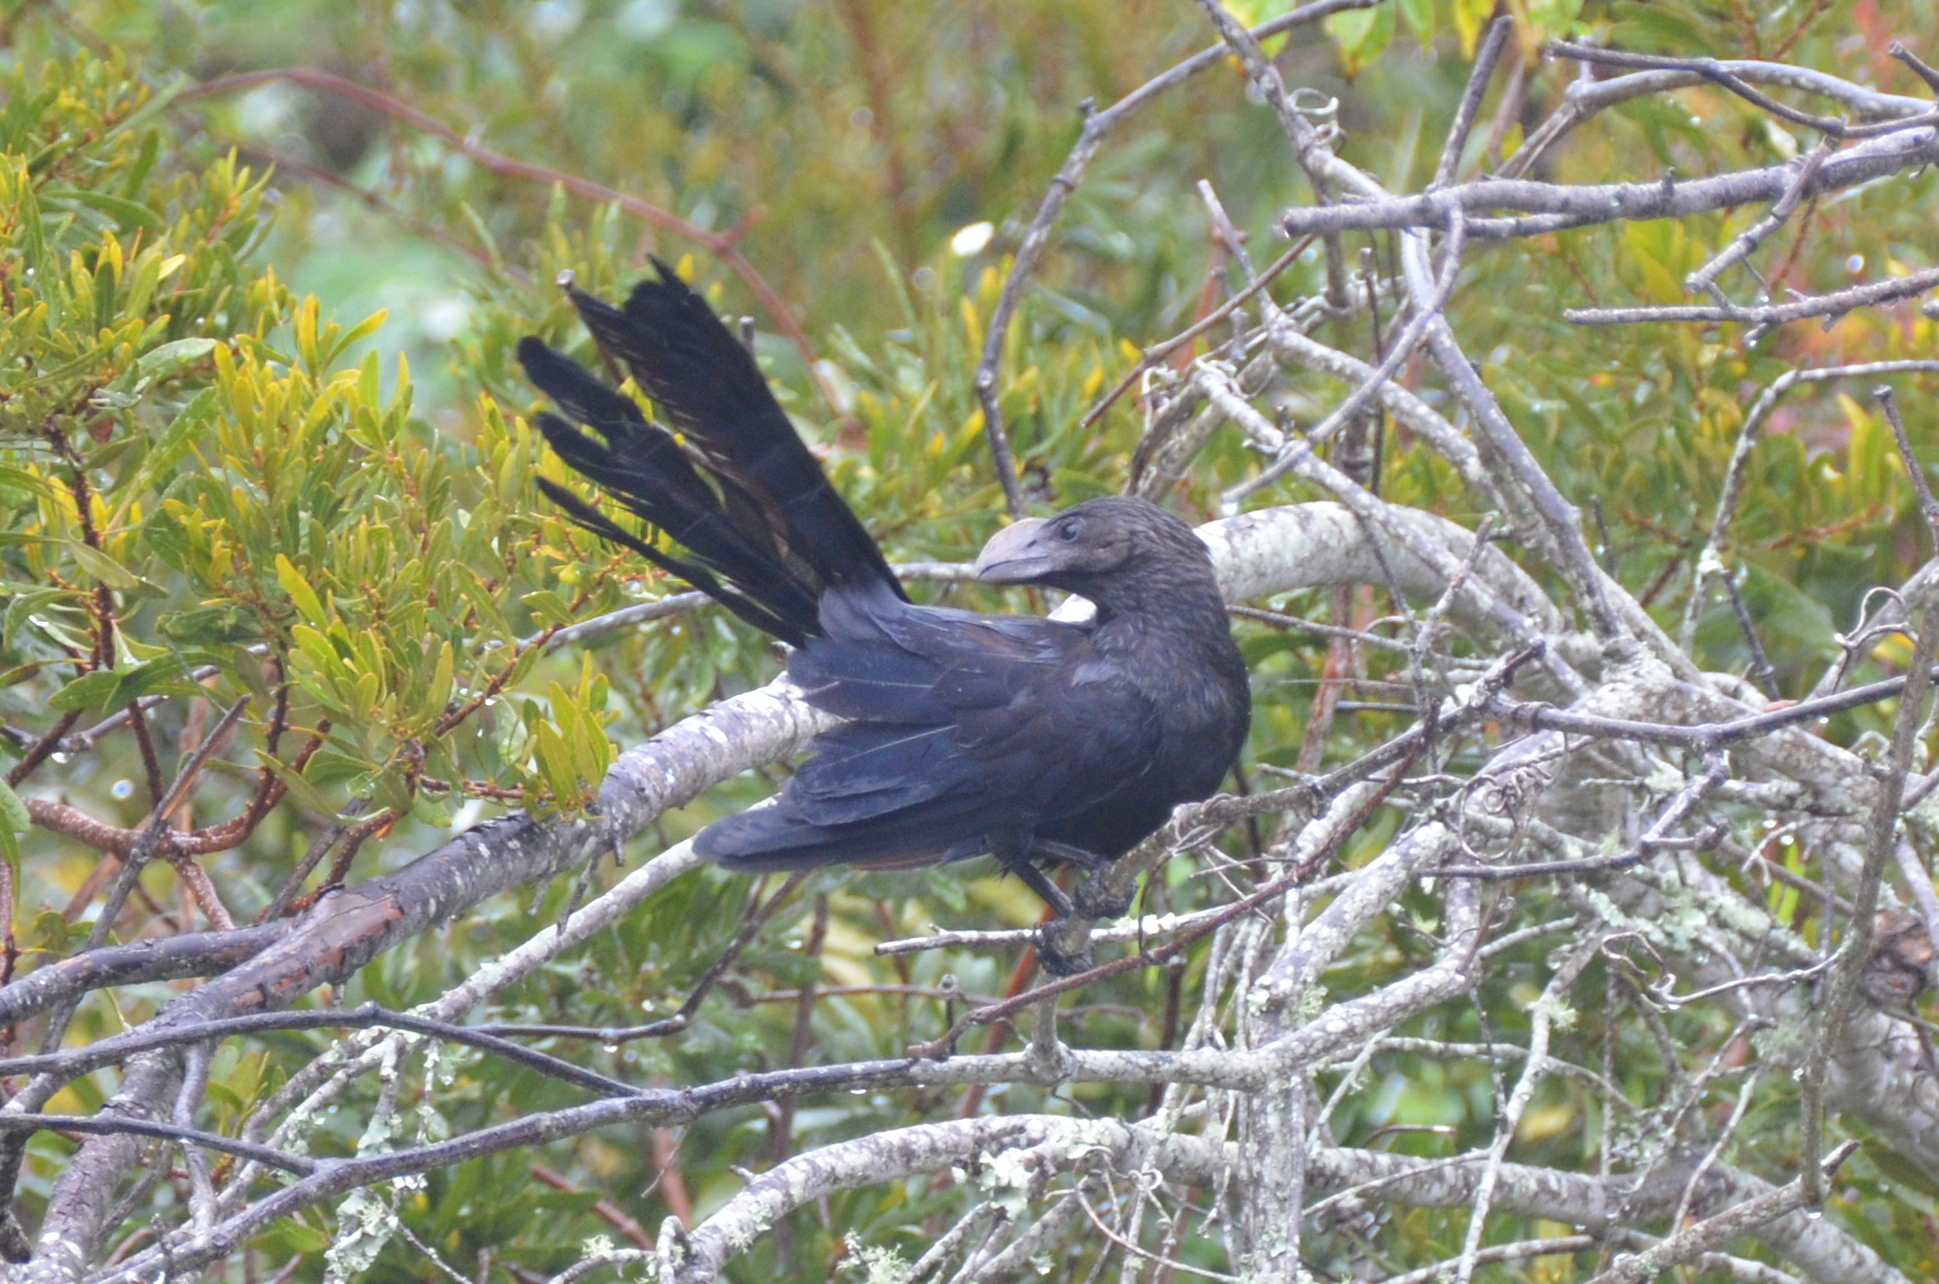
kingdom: Animalia
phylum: Chordata
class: Aves
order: Cuculiformes
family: Cuculidae
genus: Crotophaga
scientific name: Crotophaga ani
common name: Smooth-billed ani
